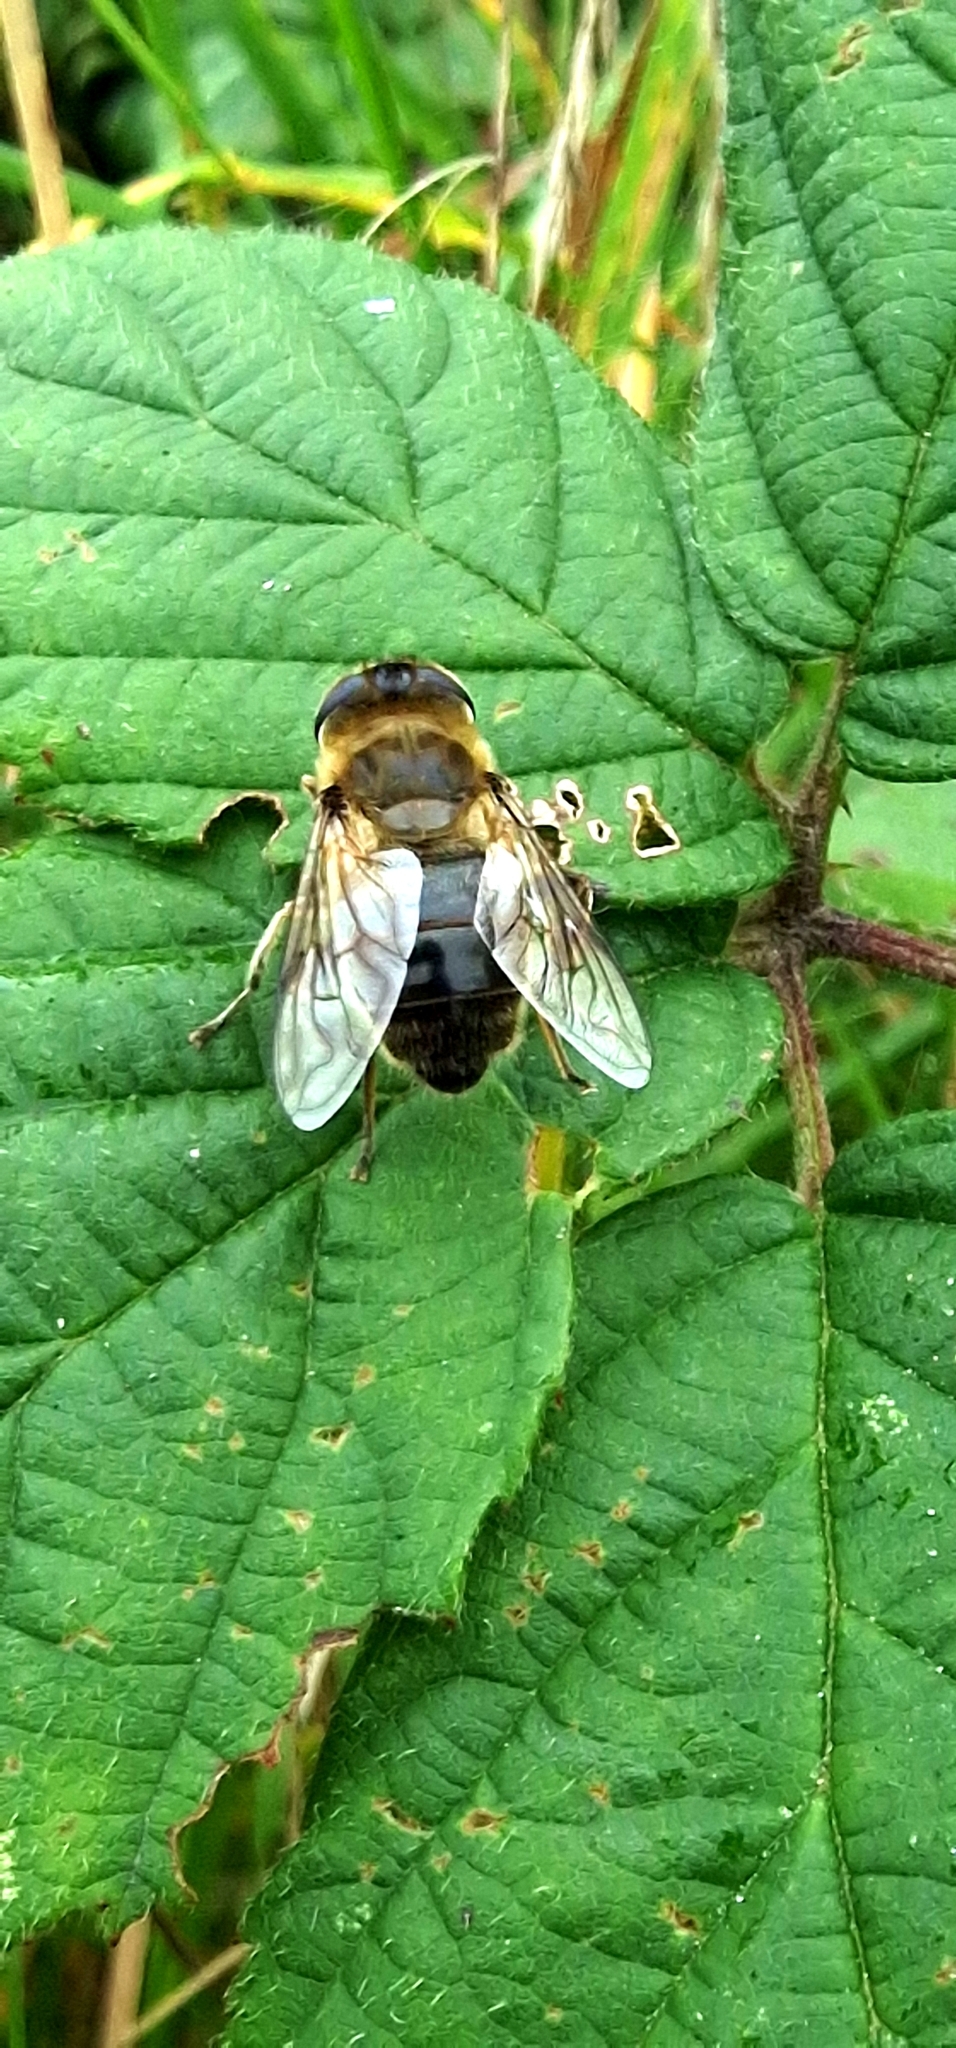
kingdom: Animalia
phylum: Arthropoda
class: Insecta
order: Diptera
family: Syrphidae
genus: Eristalis
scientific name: Eristalis tenax
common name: Drone fly
